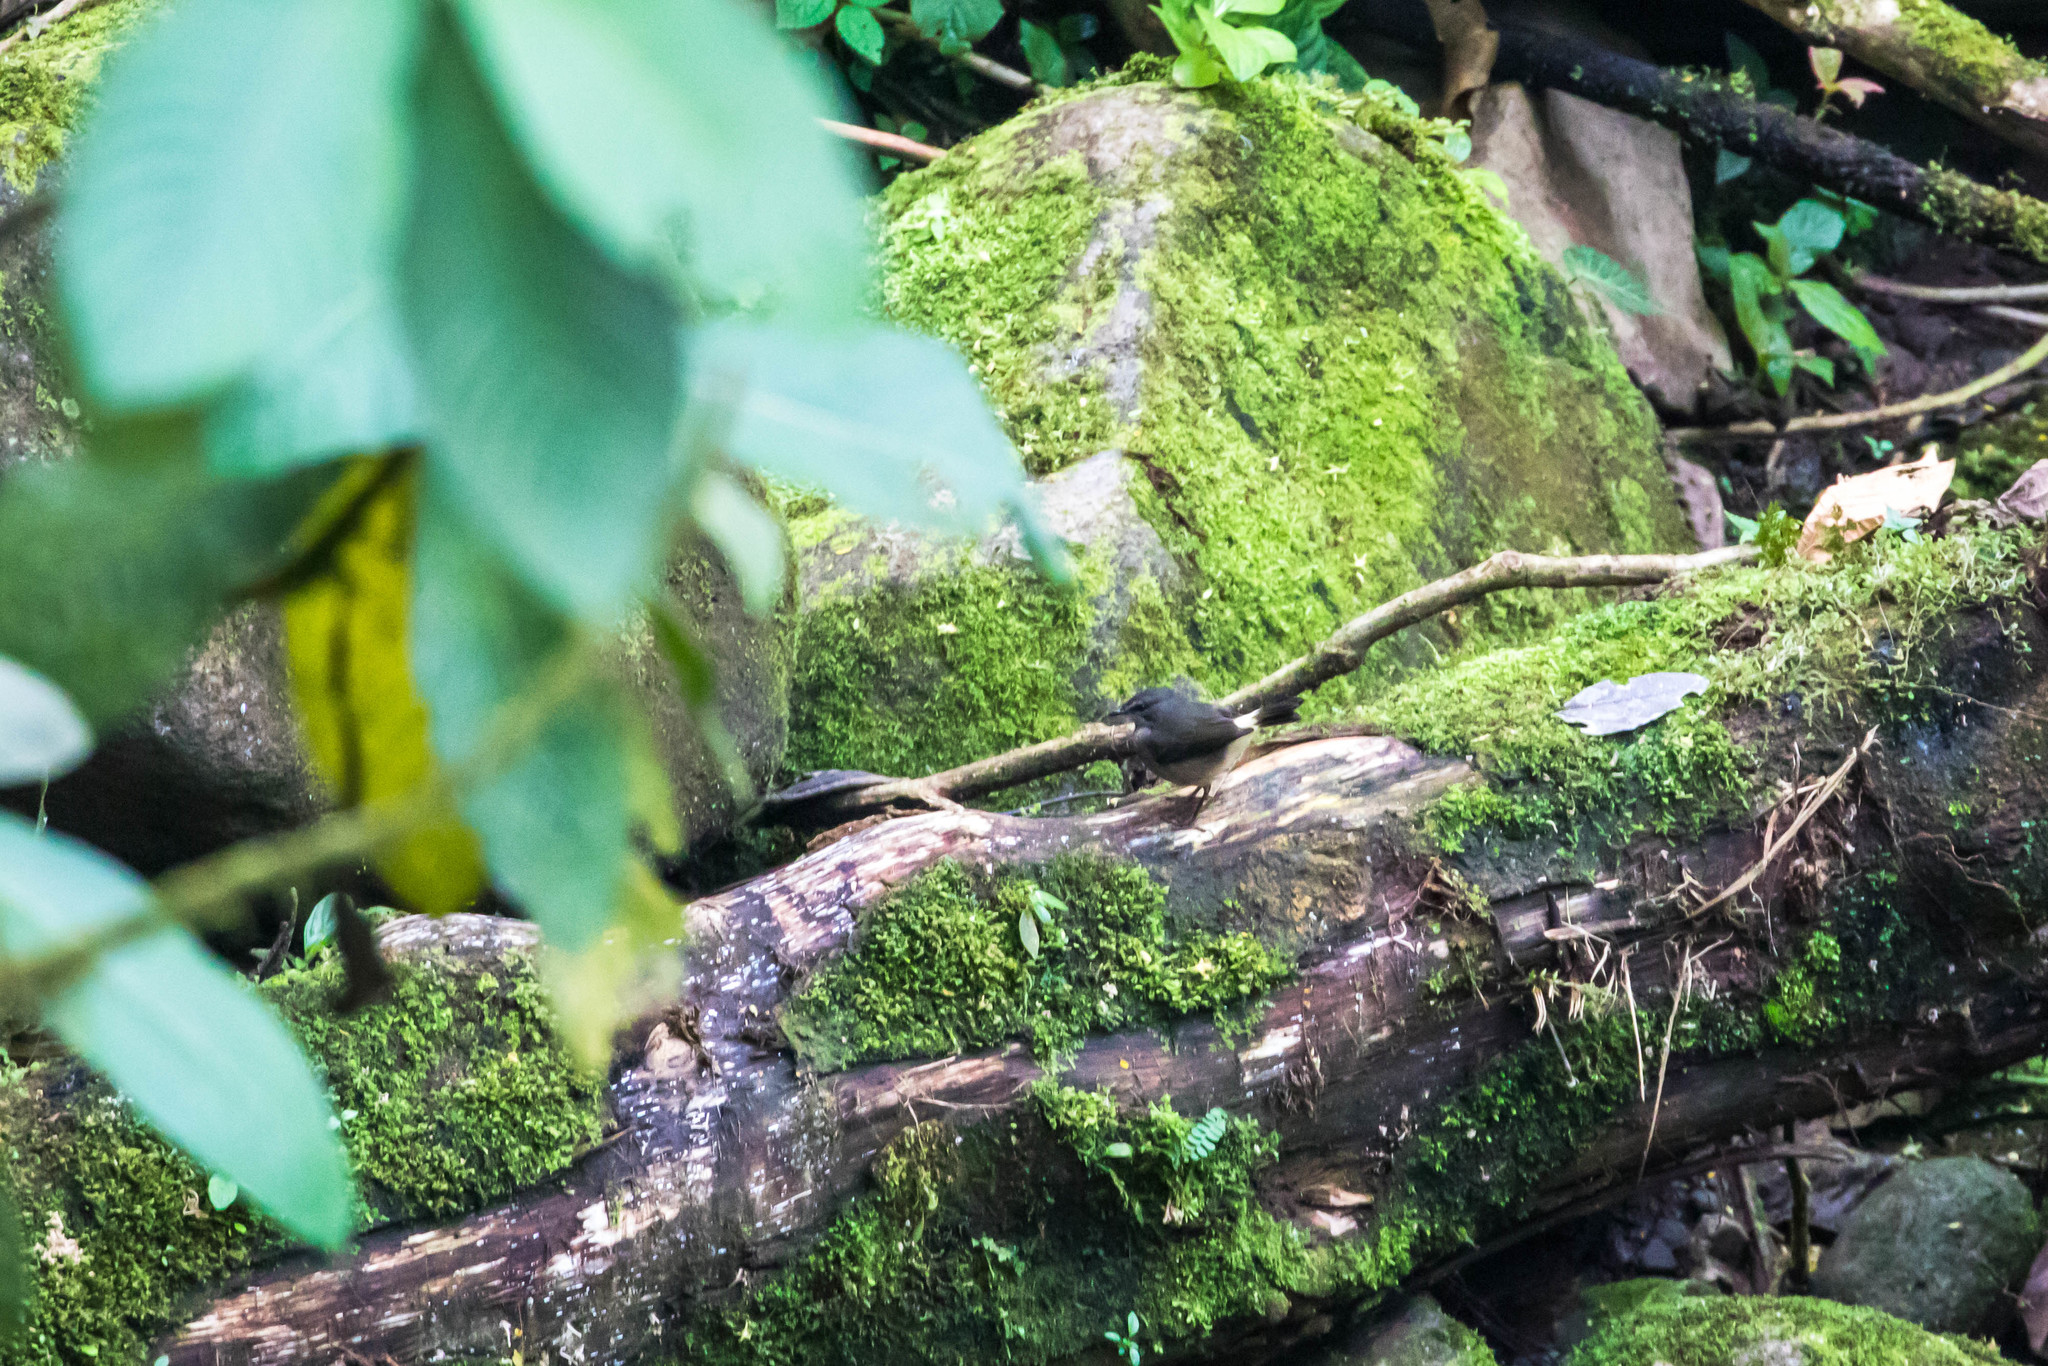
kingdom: Animalia
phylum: Chordata
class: Aves
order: Passeriformes
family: Parulidae
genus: Myiothlypis
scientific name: Myiothlypis fulvicauda
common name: Buff-rumped warbler
